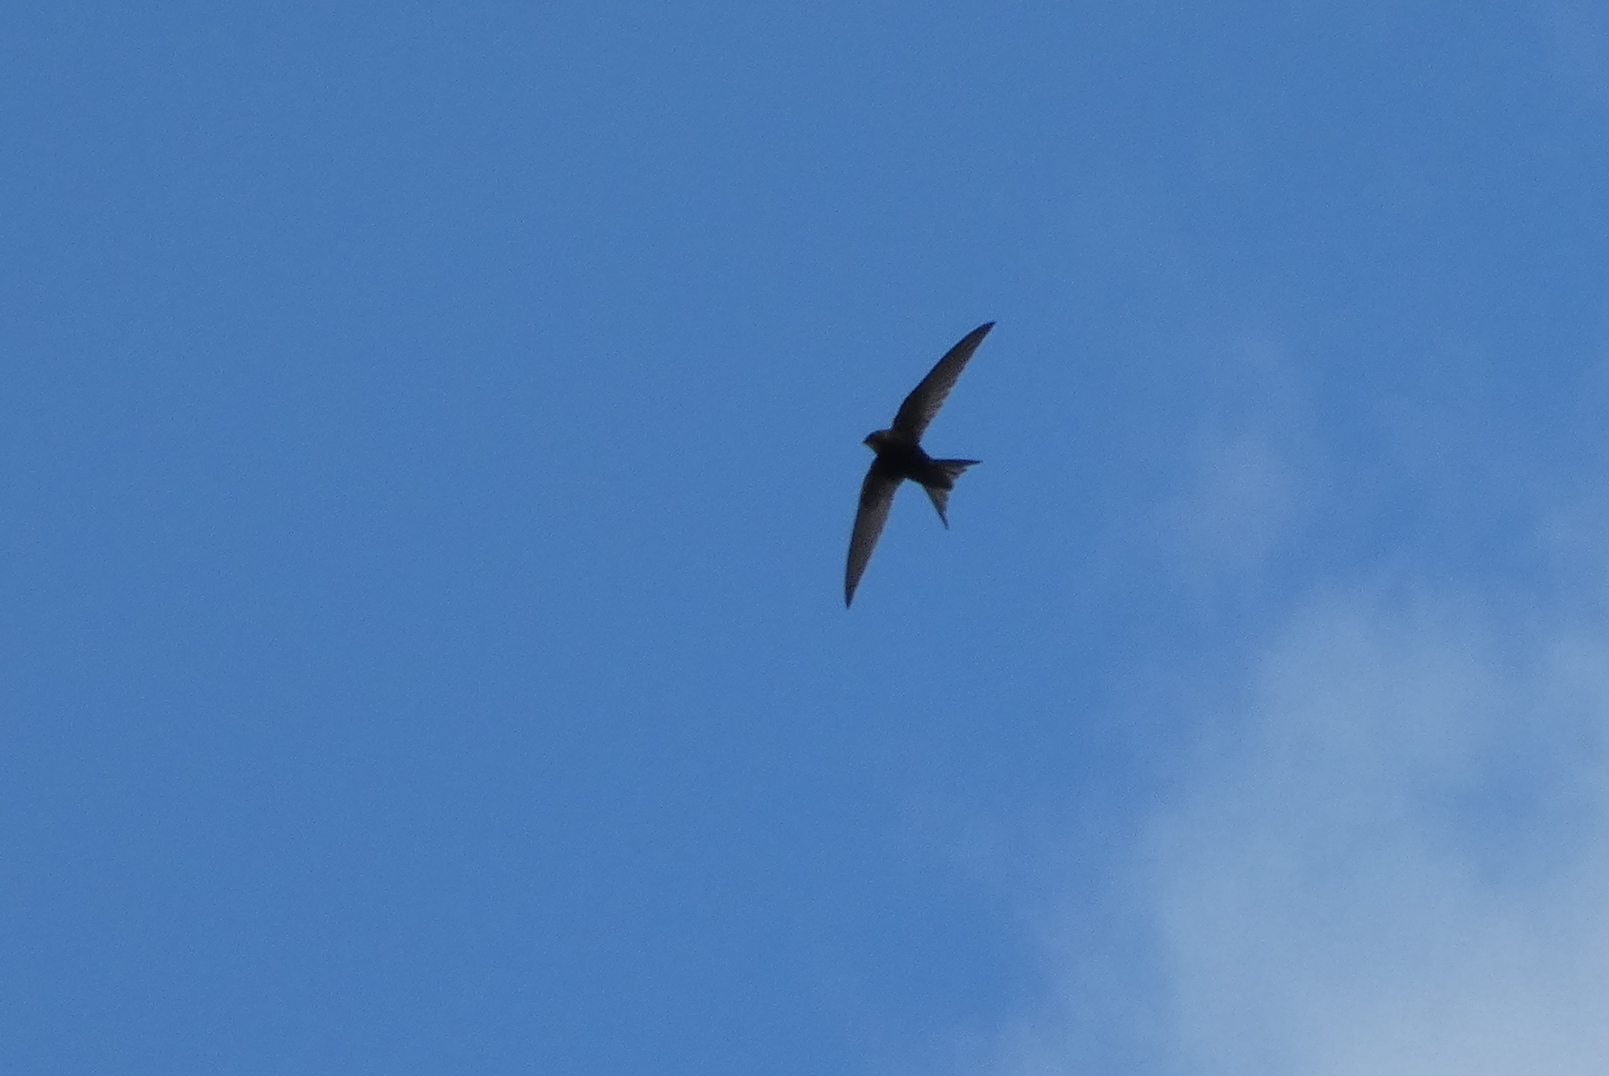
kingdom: Animalia
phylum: Chordata
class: Aves
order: Apodiformes
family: Apodidae
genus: Apus
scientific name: Apus apus
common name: Common swift
